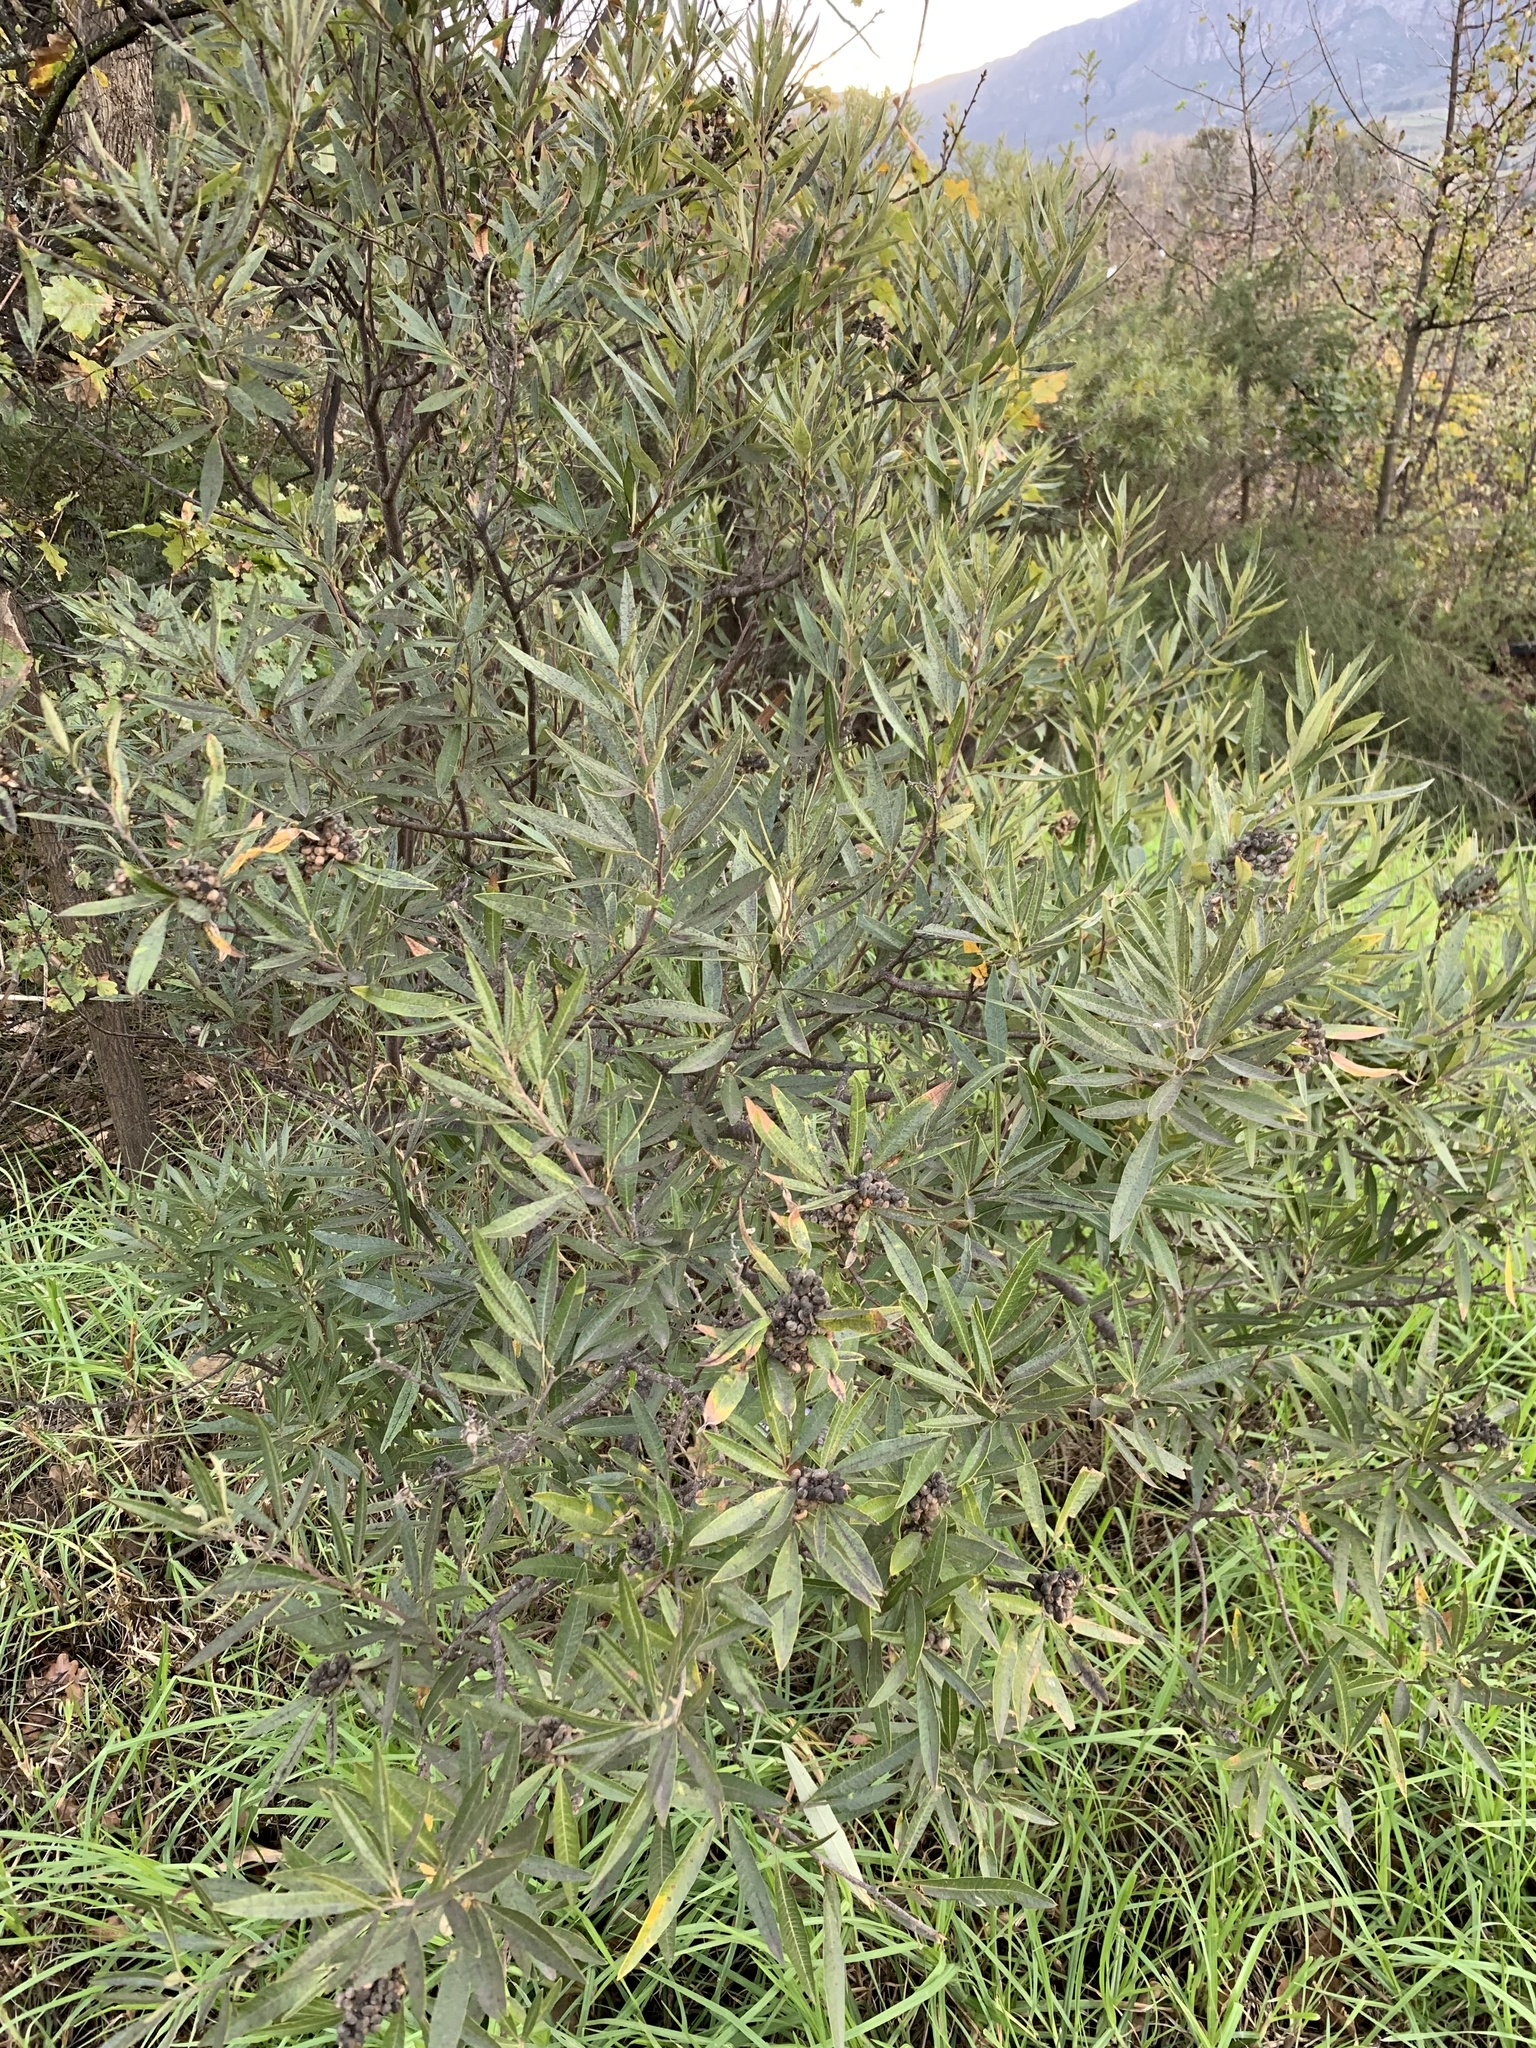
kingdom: Plantae
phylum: Tracheophyta
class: Magnoliopsida
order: Sapindales
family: Anacardiaceae
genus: Searsia
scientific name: Searsia angustifolia
